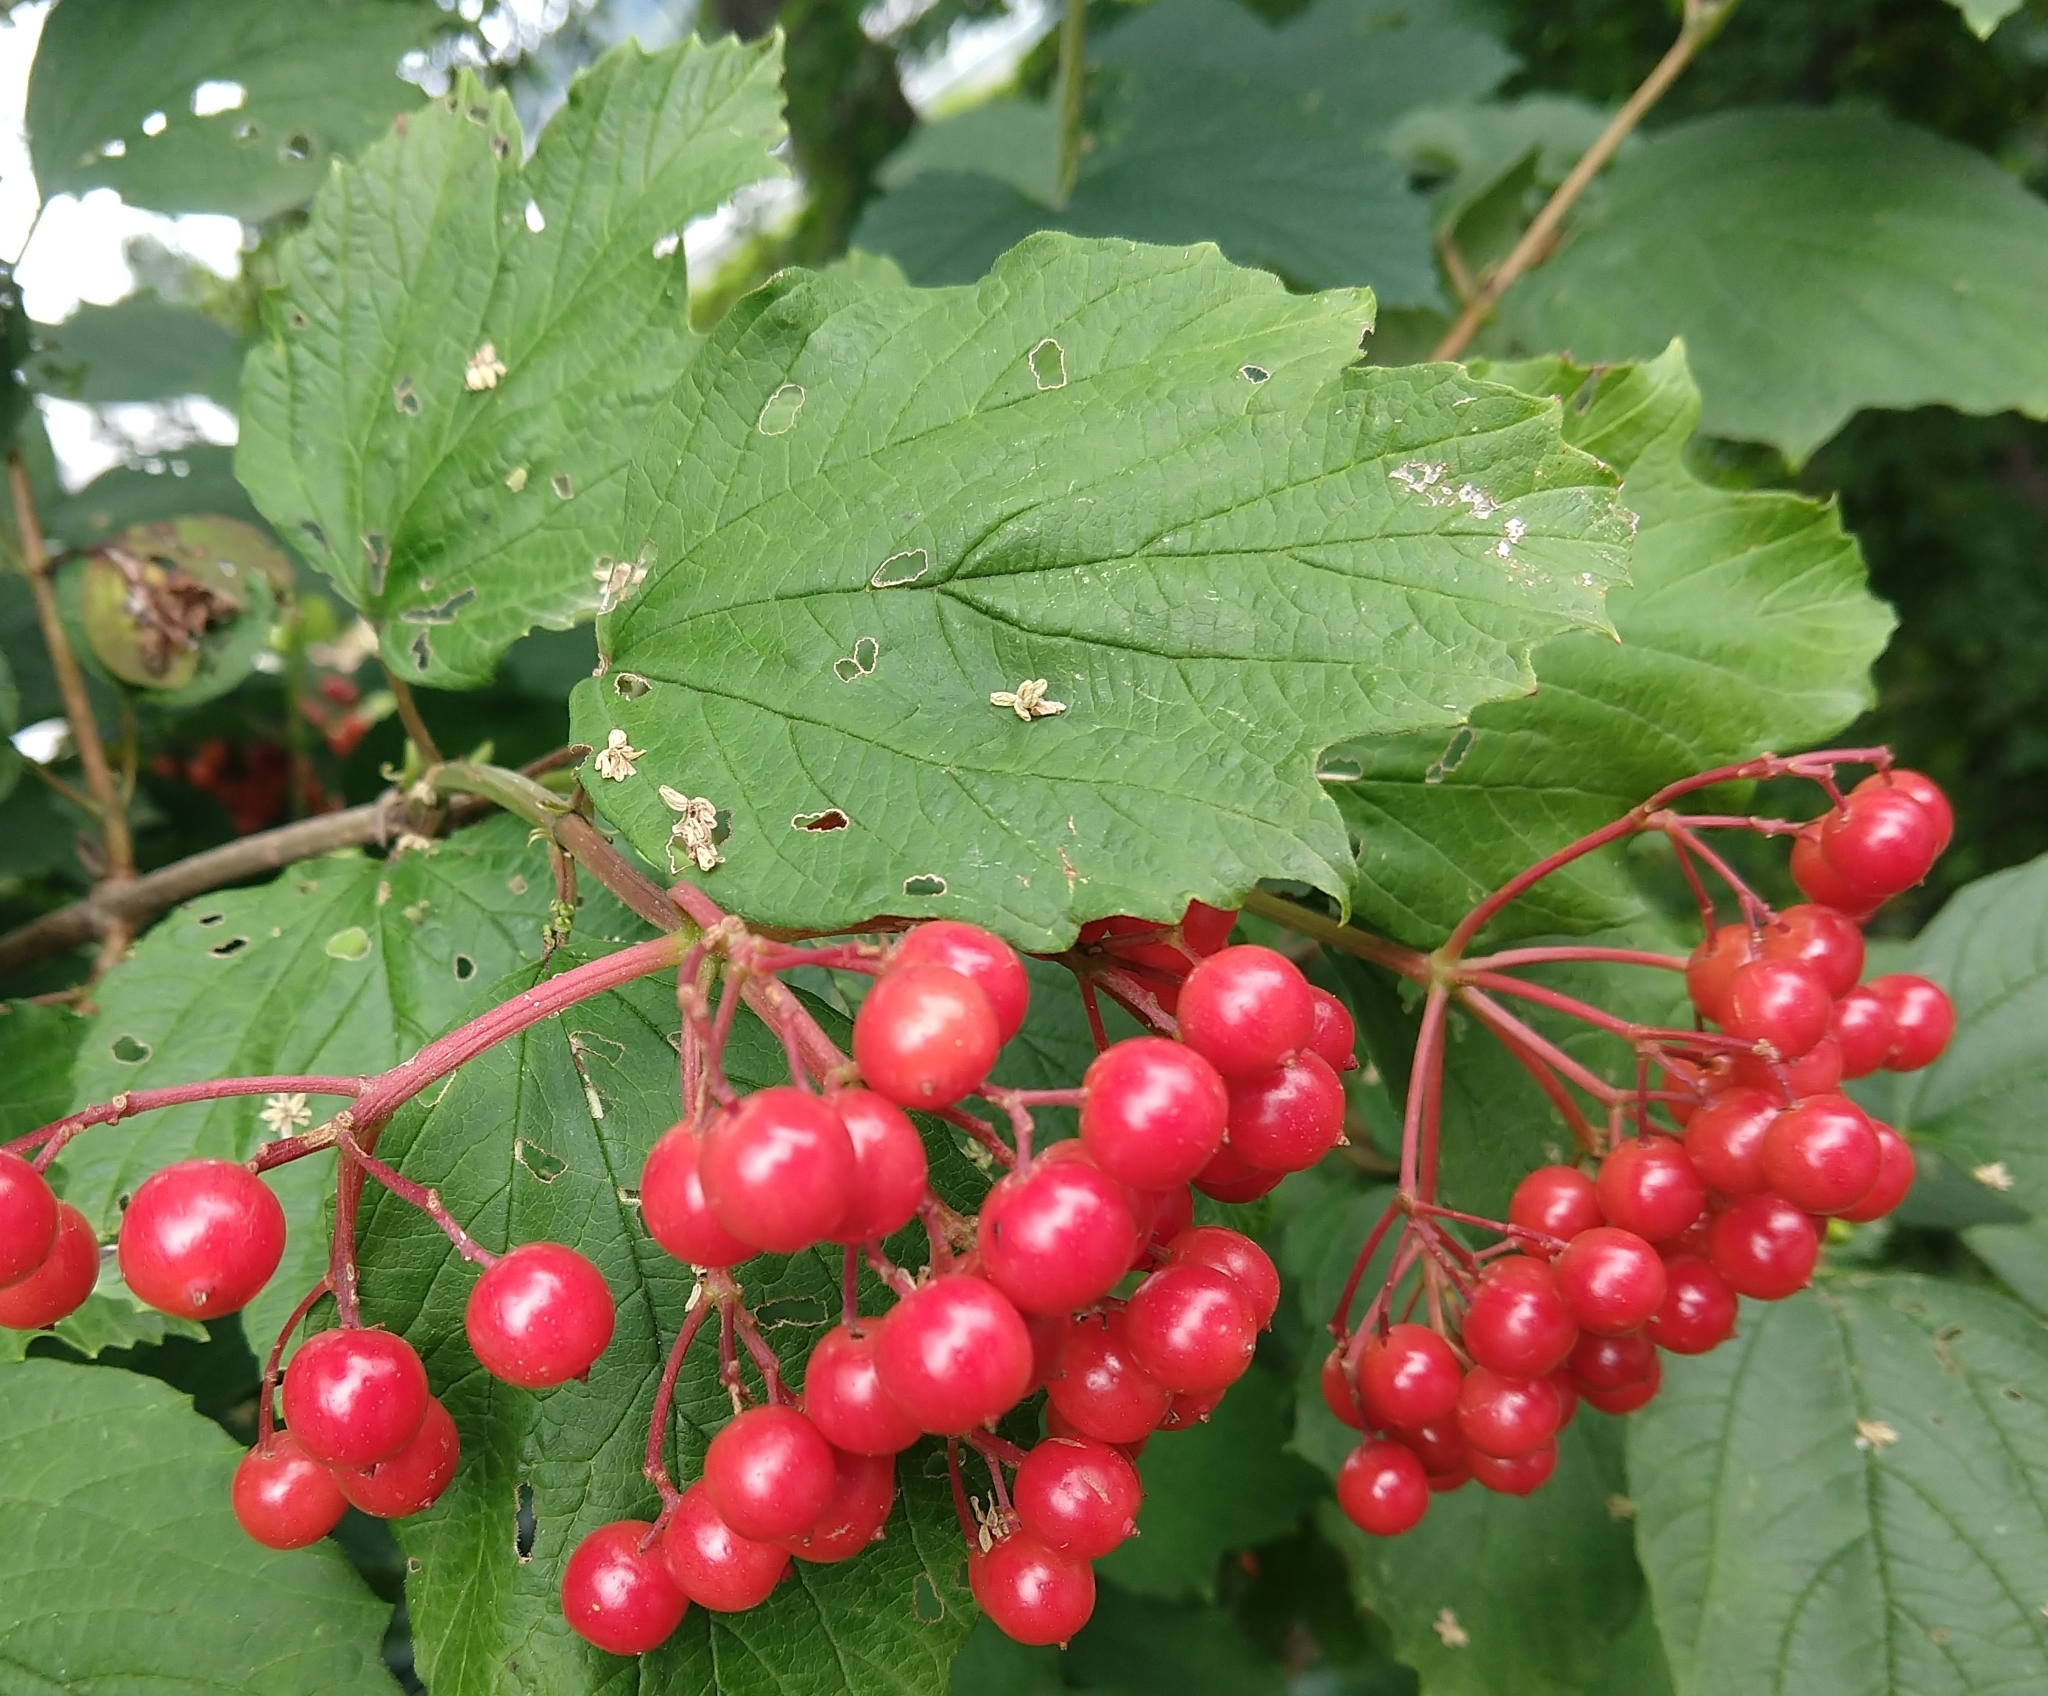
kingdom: Plantae
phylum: Tracheophyta
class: Magnoliopsida
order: Dipsacales
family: Viburnaceae
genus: Viburnum
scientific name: Viburnum opulus
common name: Guelder-rose
